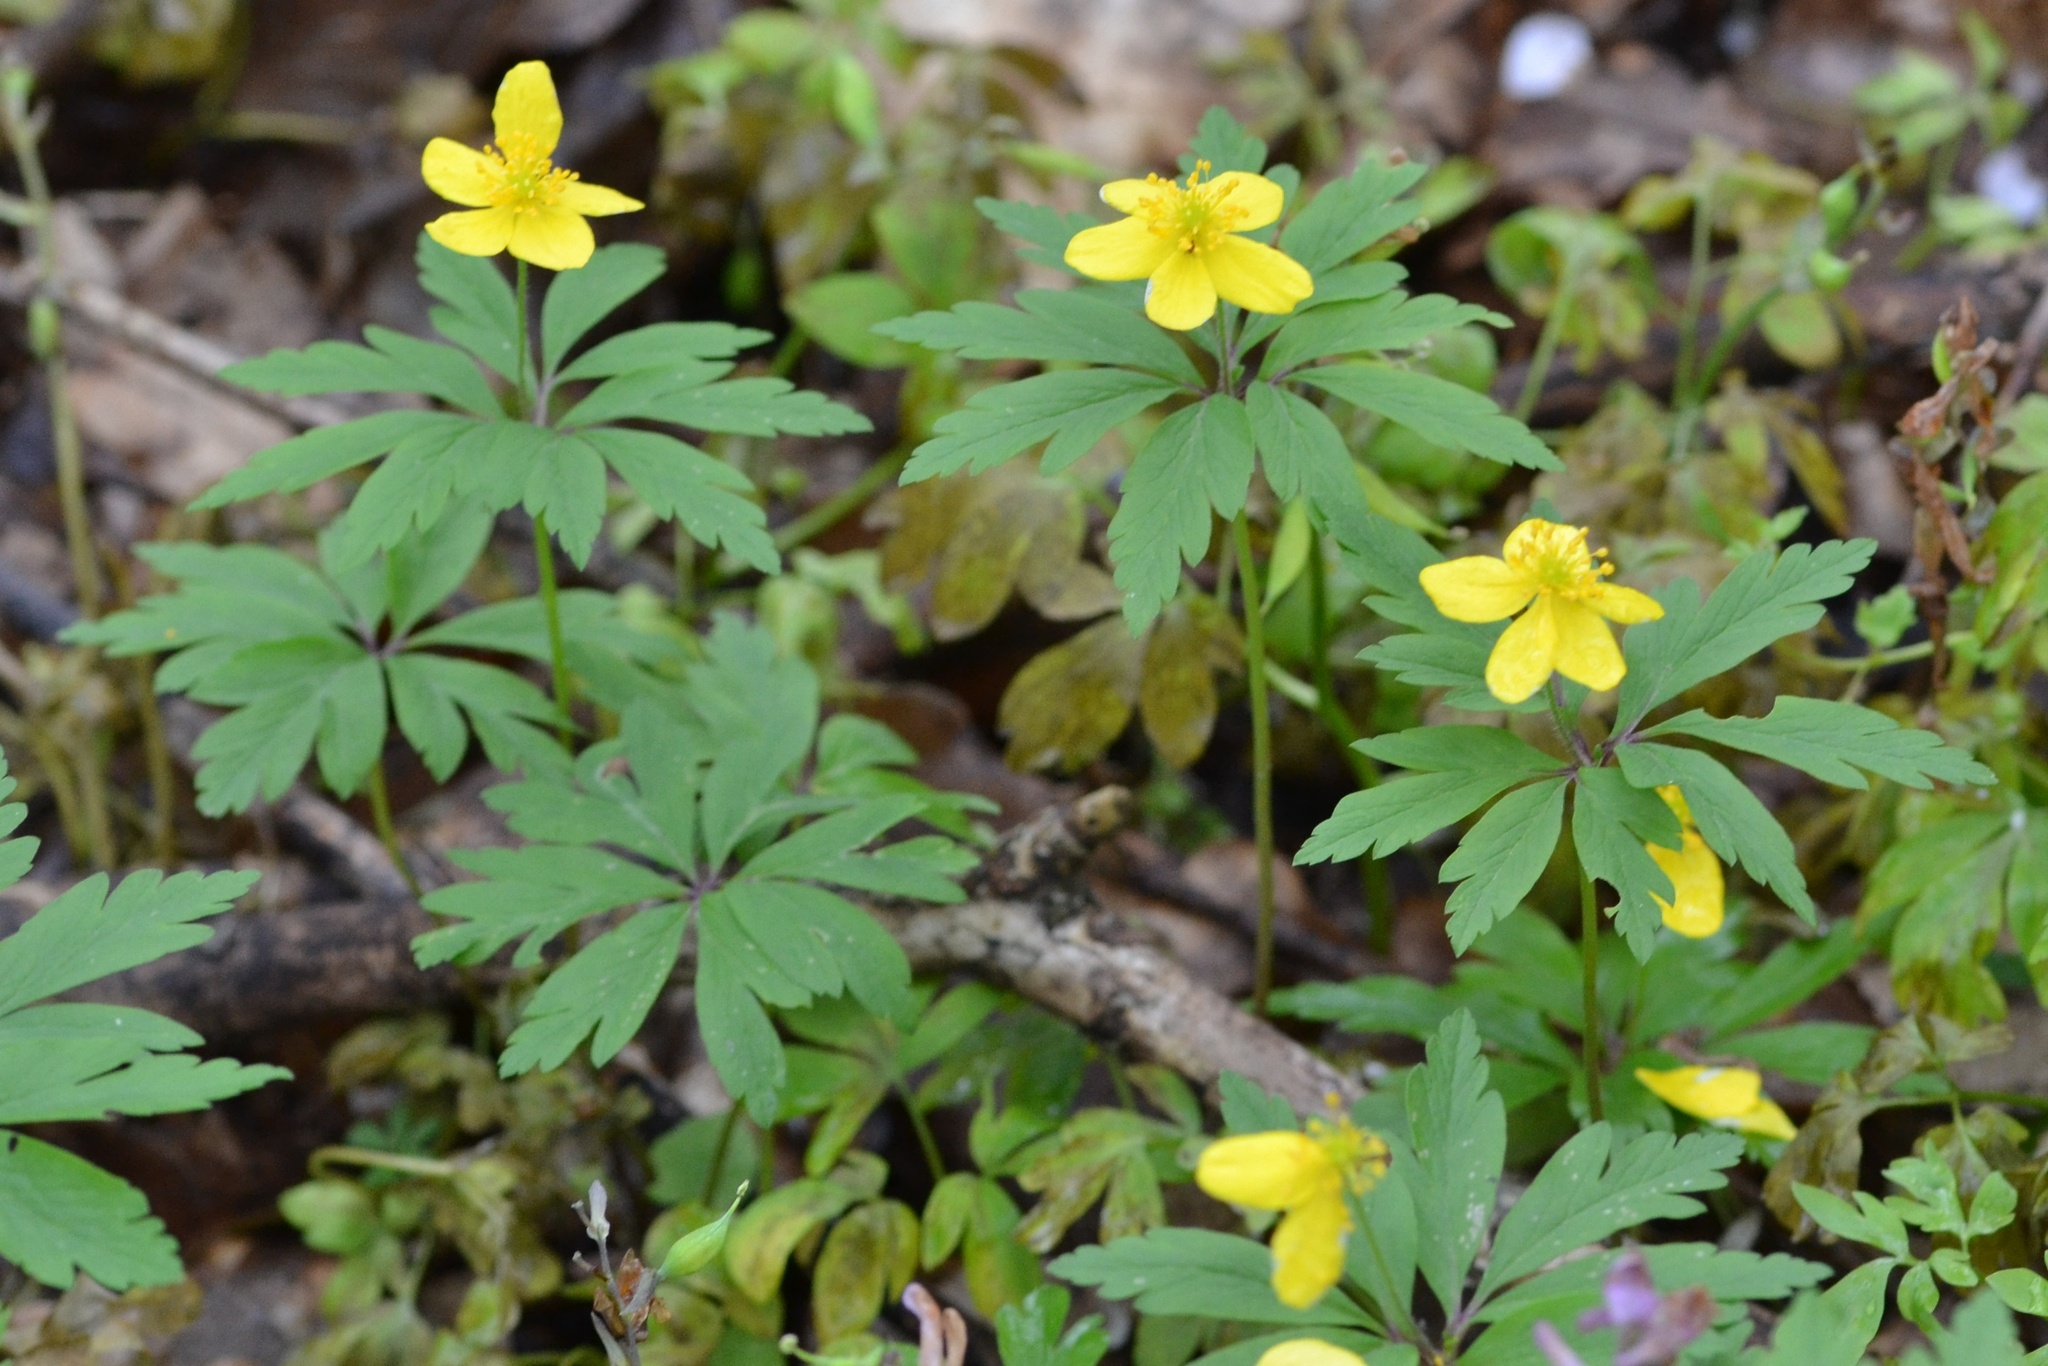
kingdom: Plantae
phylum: Tracheophyta
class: Magnoliopsida
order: Ranunculales
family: Ranunculaceae
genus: Anemone
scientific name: Anemone ranunculoides
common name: Yellow anemone
